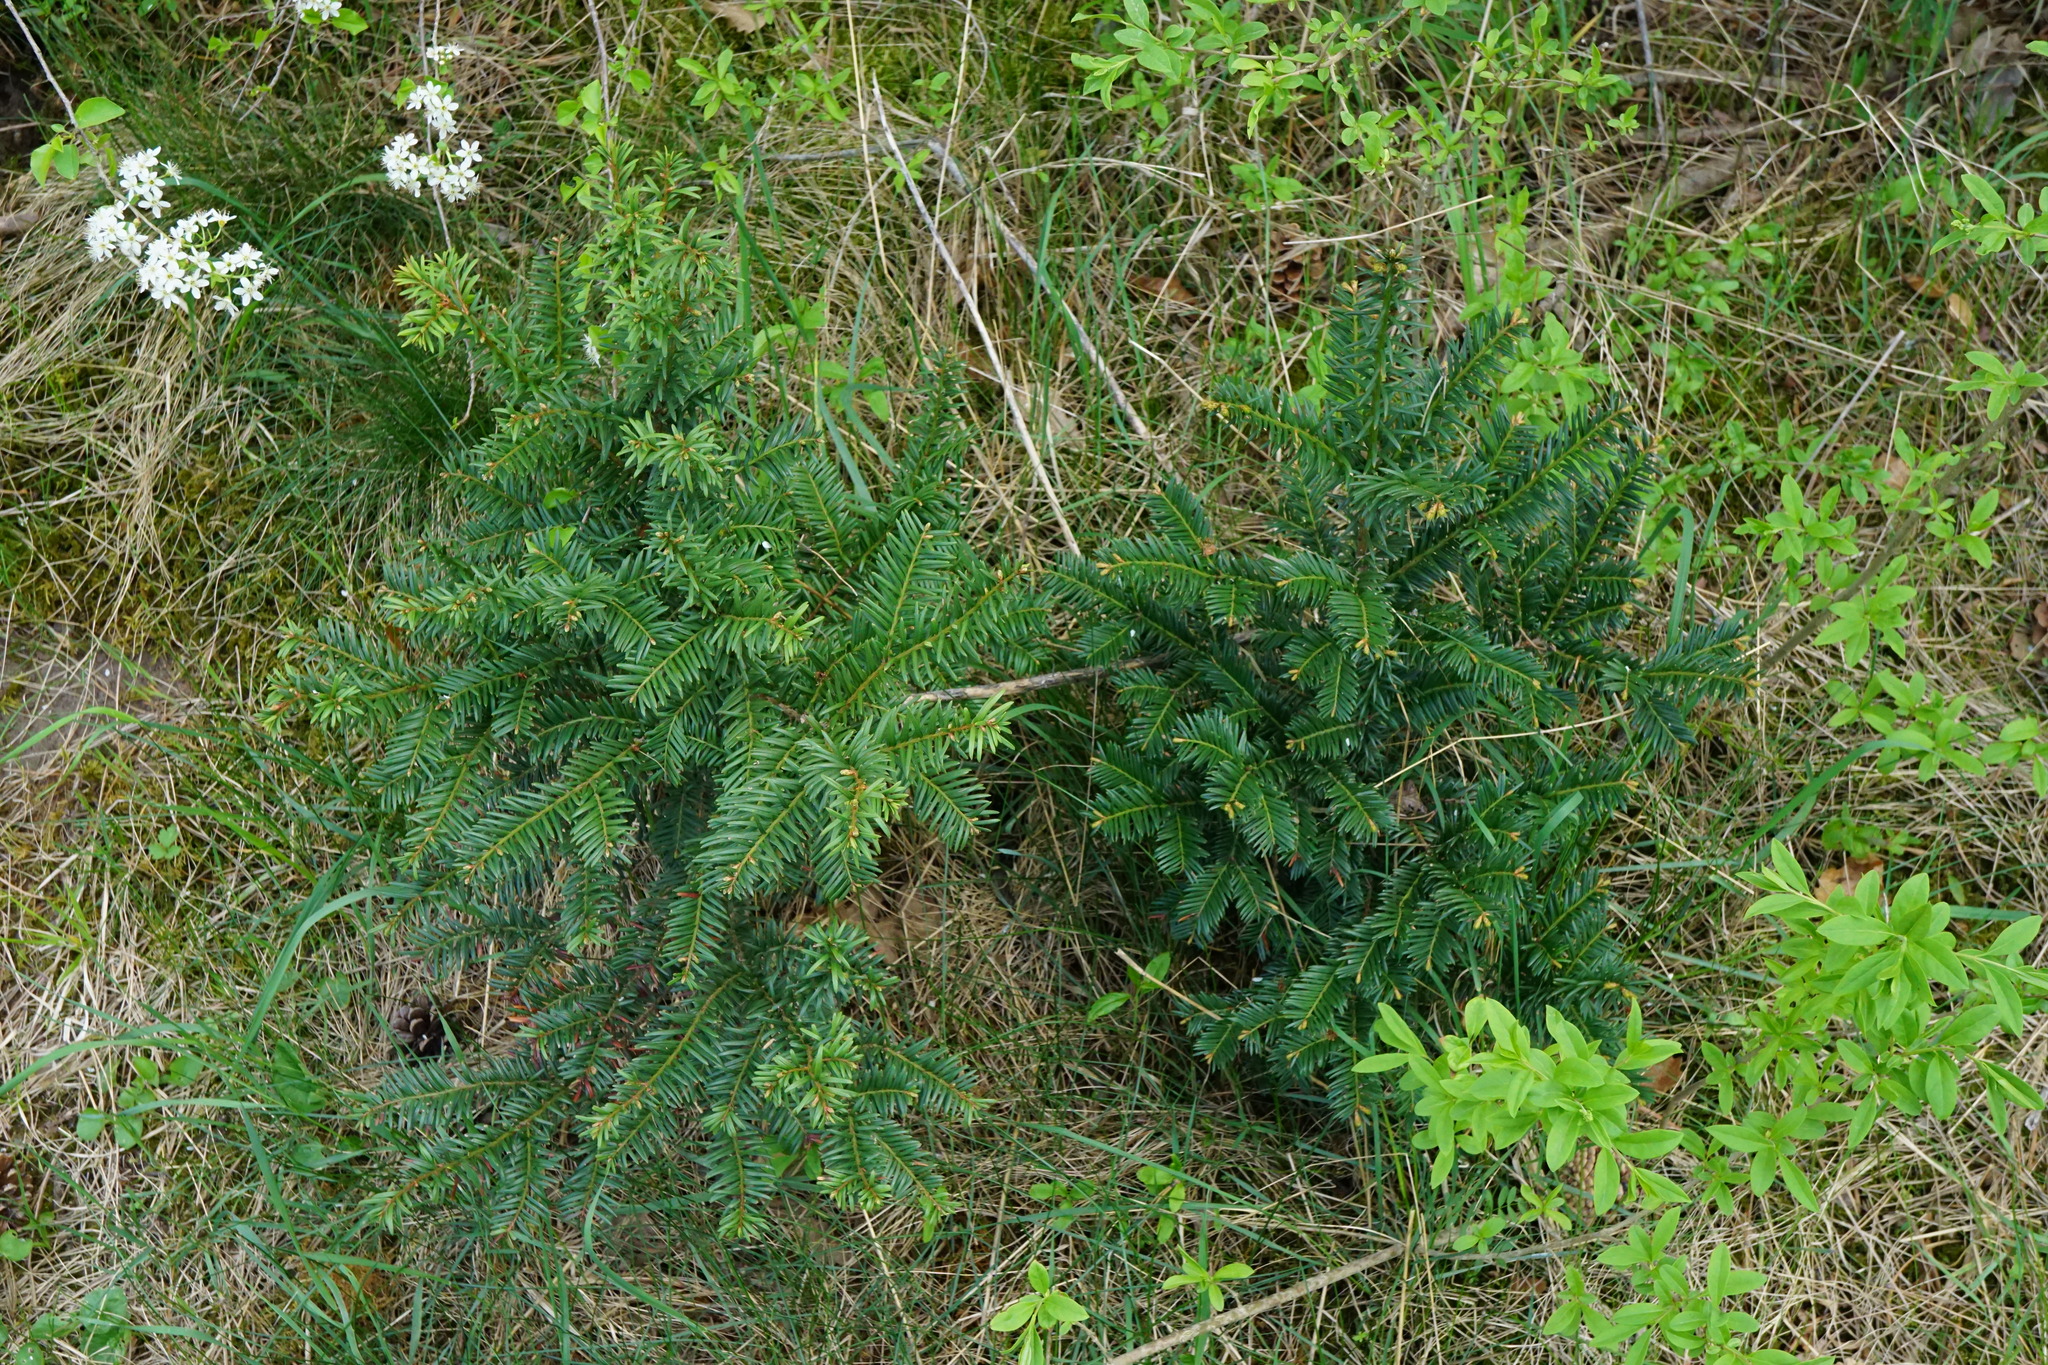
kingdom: Plantae
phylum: Tracheophyta
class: Pinopsida
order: Pinales
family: Taxaceae
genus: Taxus
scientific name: Taxus baccata
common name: Yew
